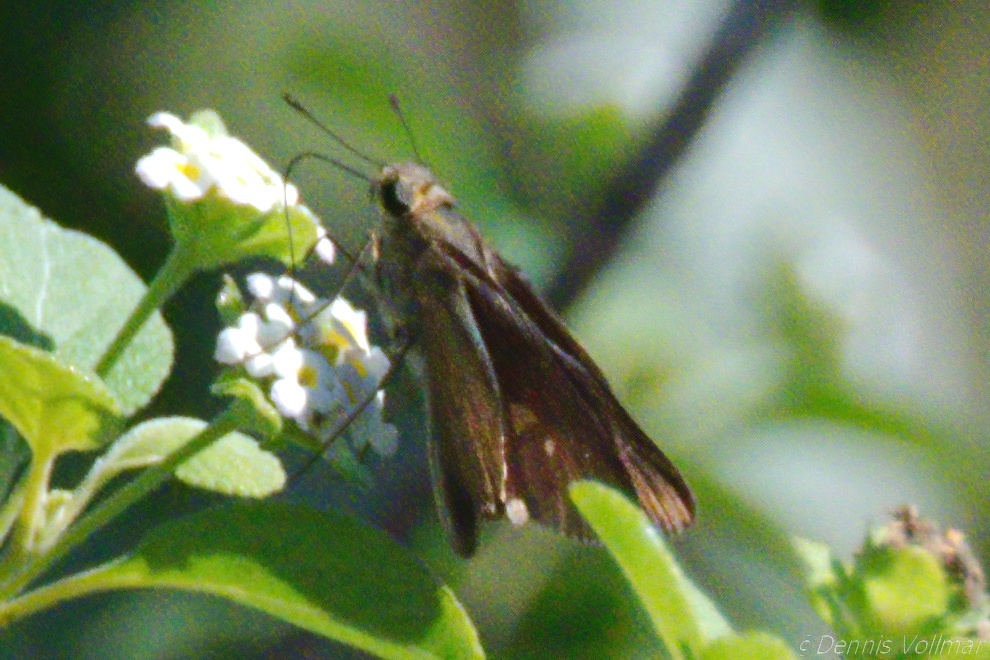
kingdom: Animalia
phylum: Arthropoda
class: Insecta
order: Lepidoptera
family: Hesperiidae
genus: Panoquina
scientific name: Panoquina ocola
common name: Ocola skipper
